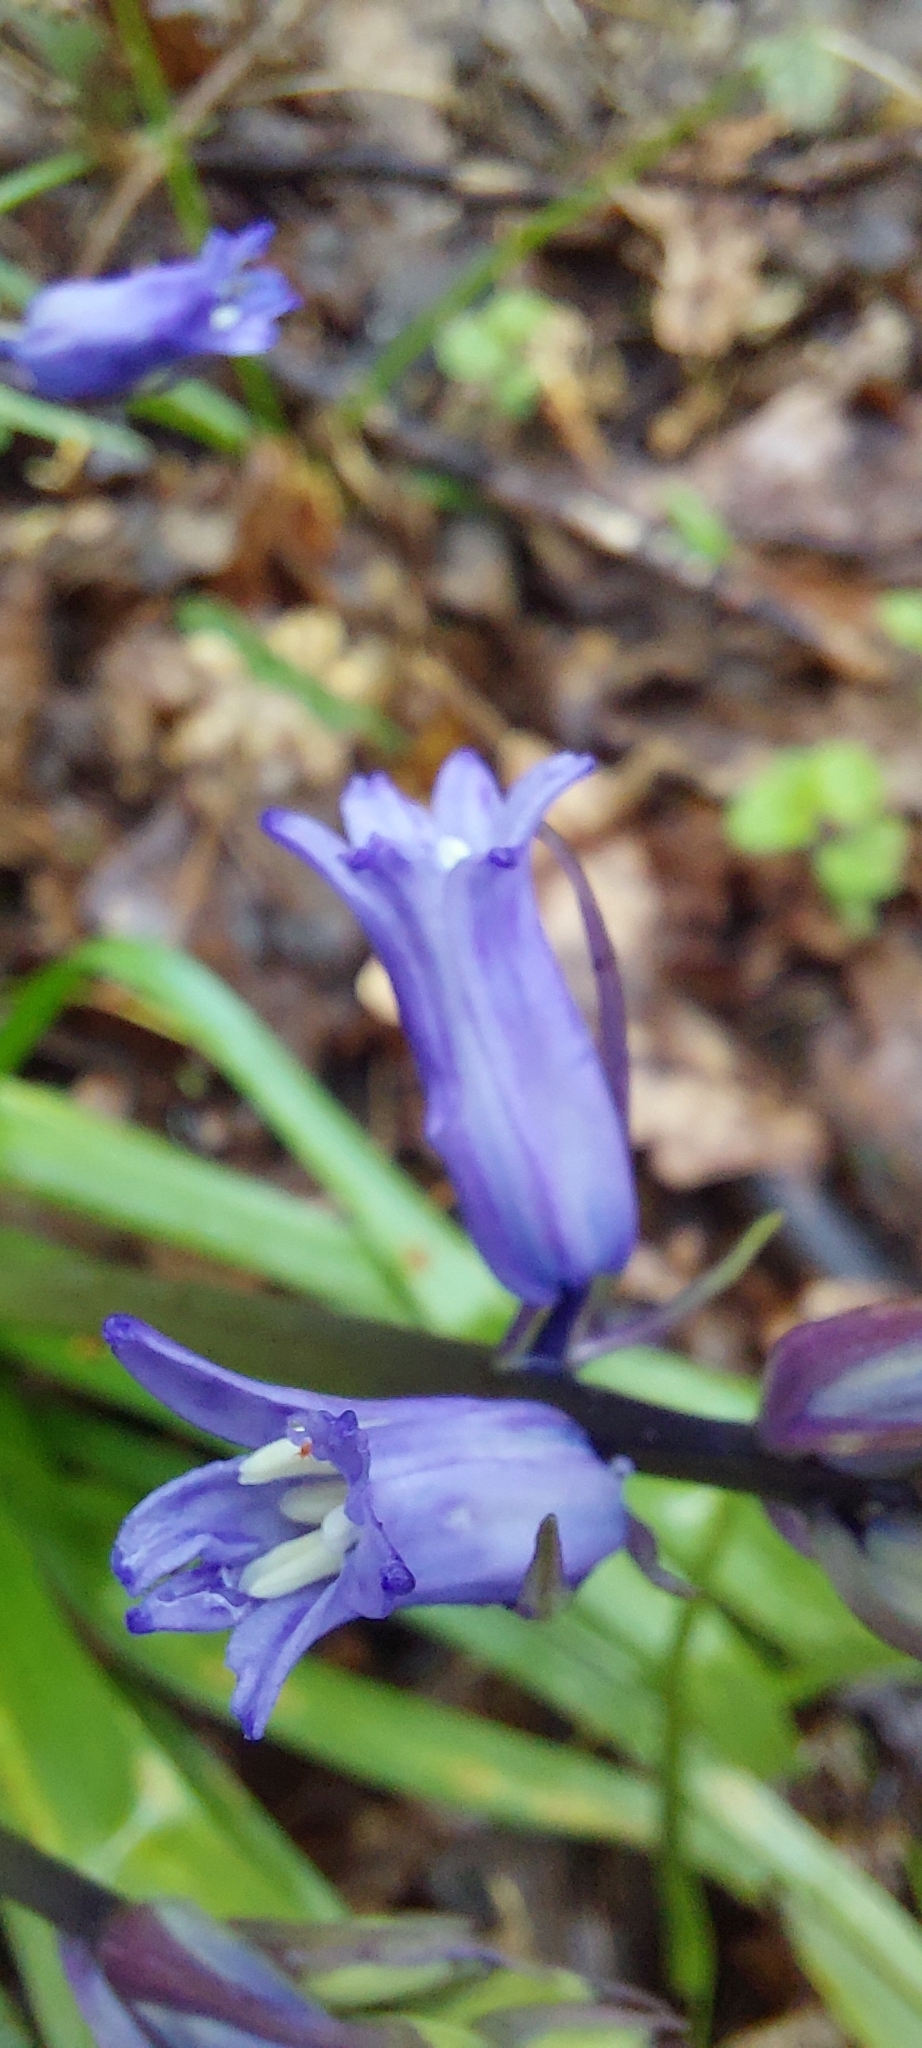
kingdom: Plantae
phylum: Tracheophyta
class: Liliopsida
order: Asparagales
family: Asparagaceae
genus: Hyacinthoides
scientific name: Hyacinthoides massartiana
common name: Hyacinthoides
